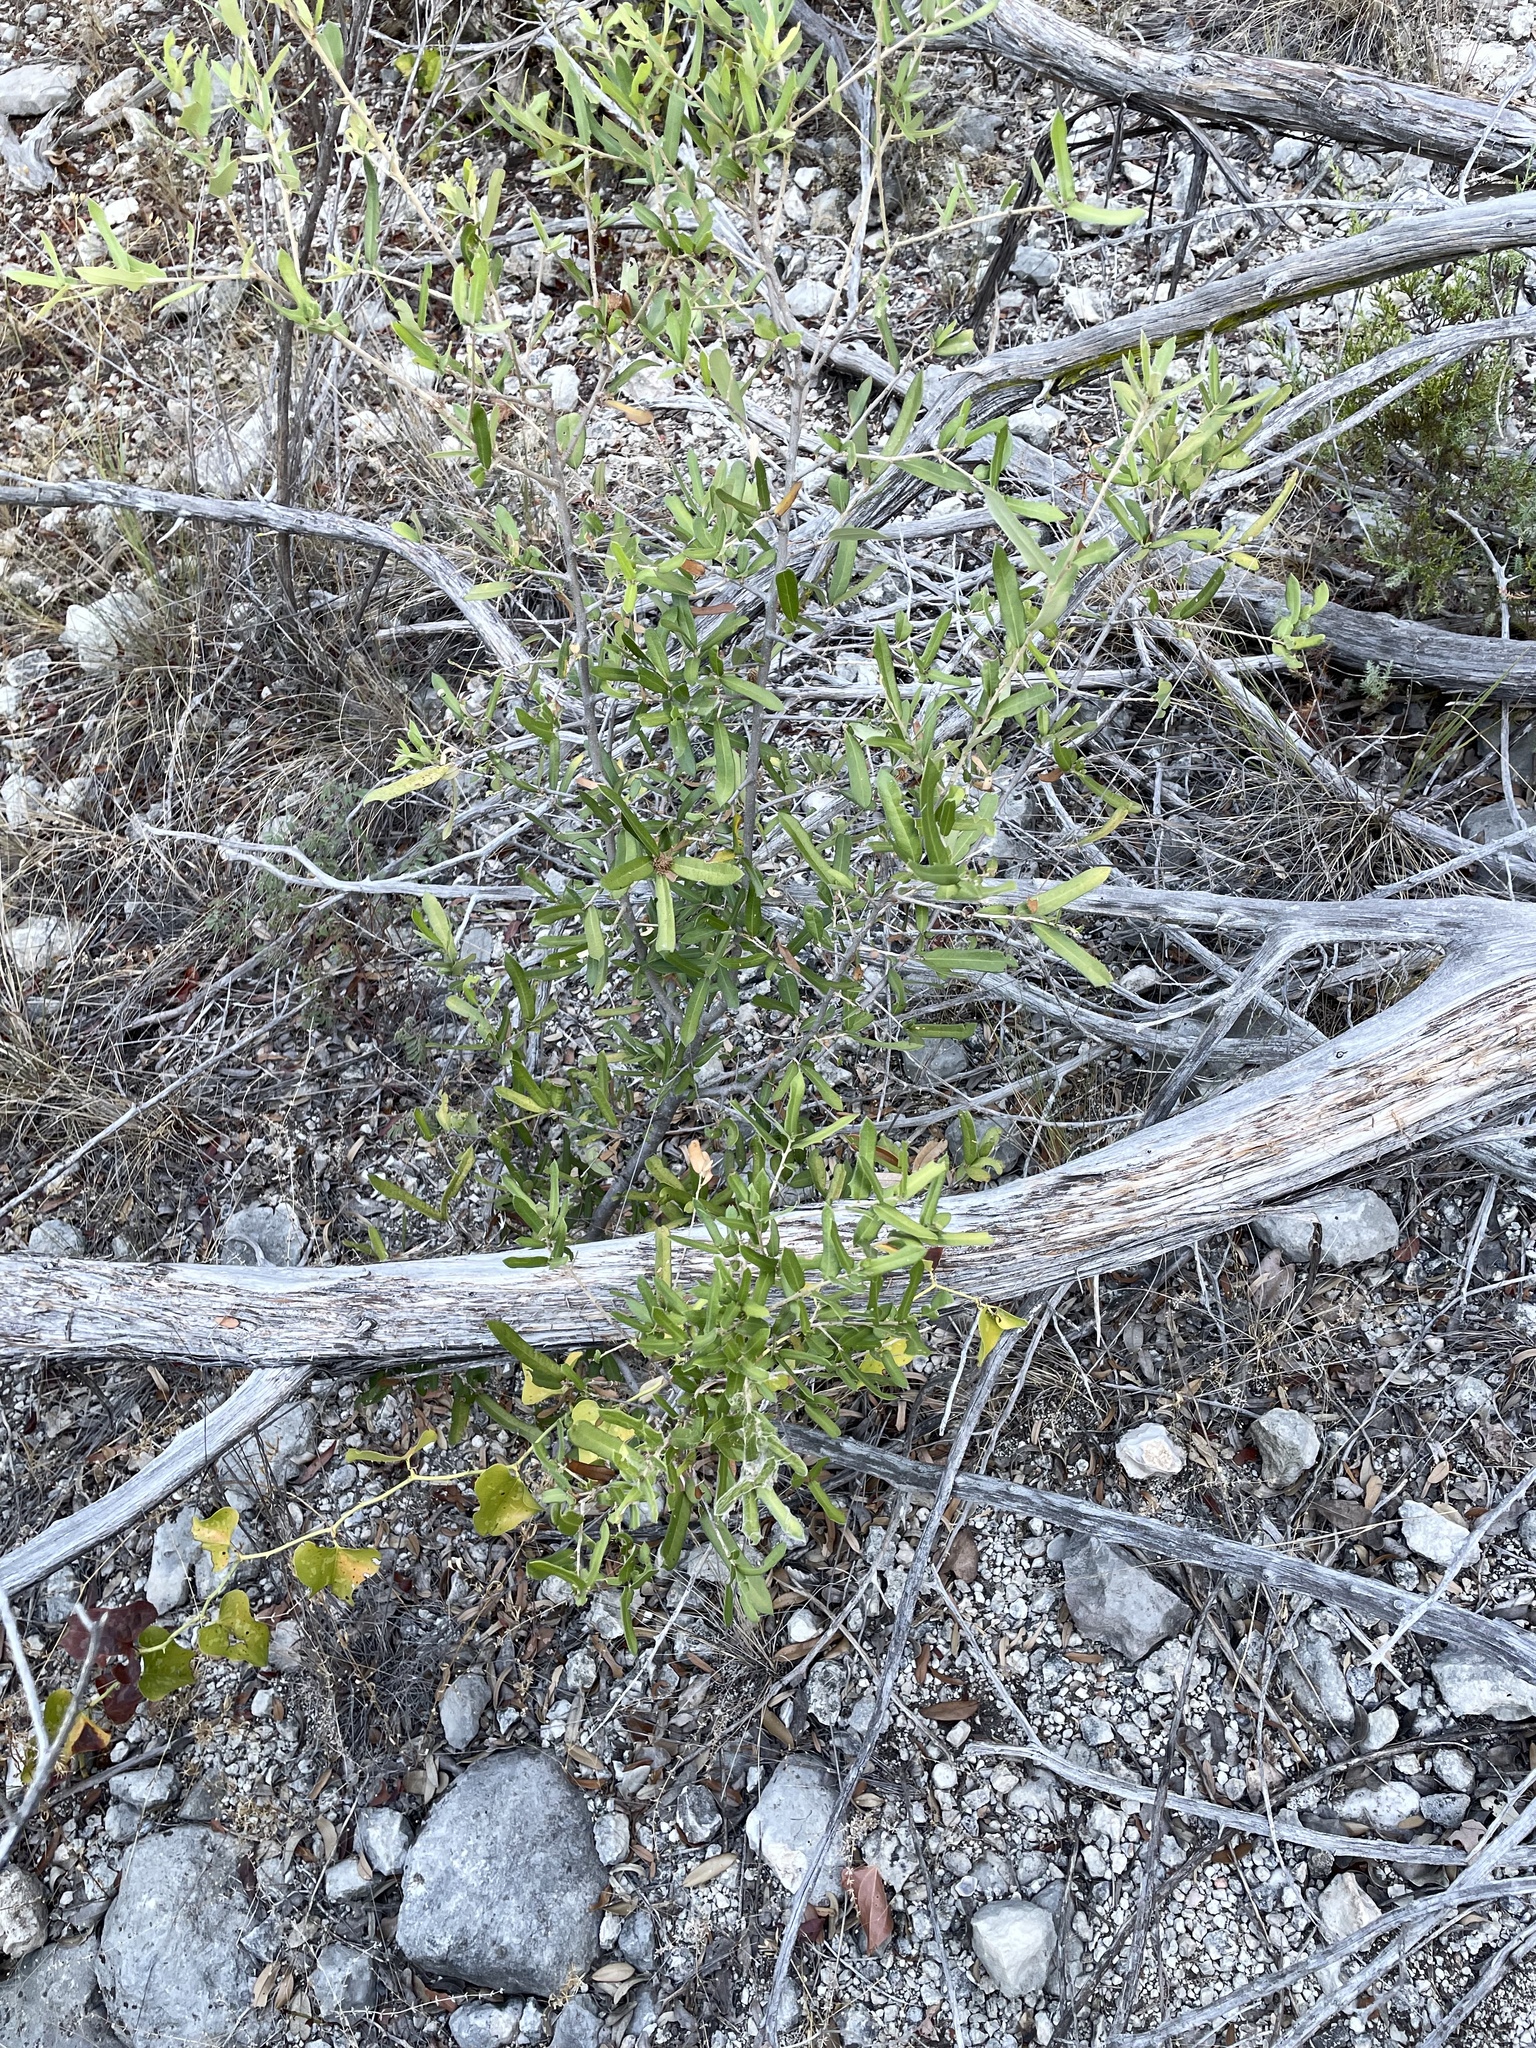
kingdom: Plantae
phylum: Tracheophyta
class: Magnoliopsida
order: Fagales
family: Fagaceae
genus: Quercus
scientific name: Quercus fusiformis
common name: Texas live oak
